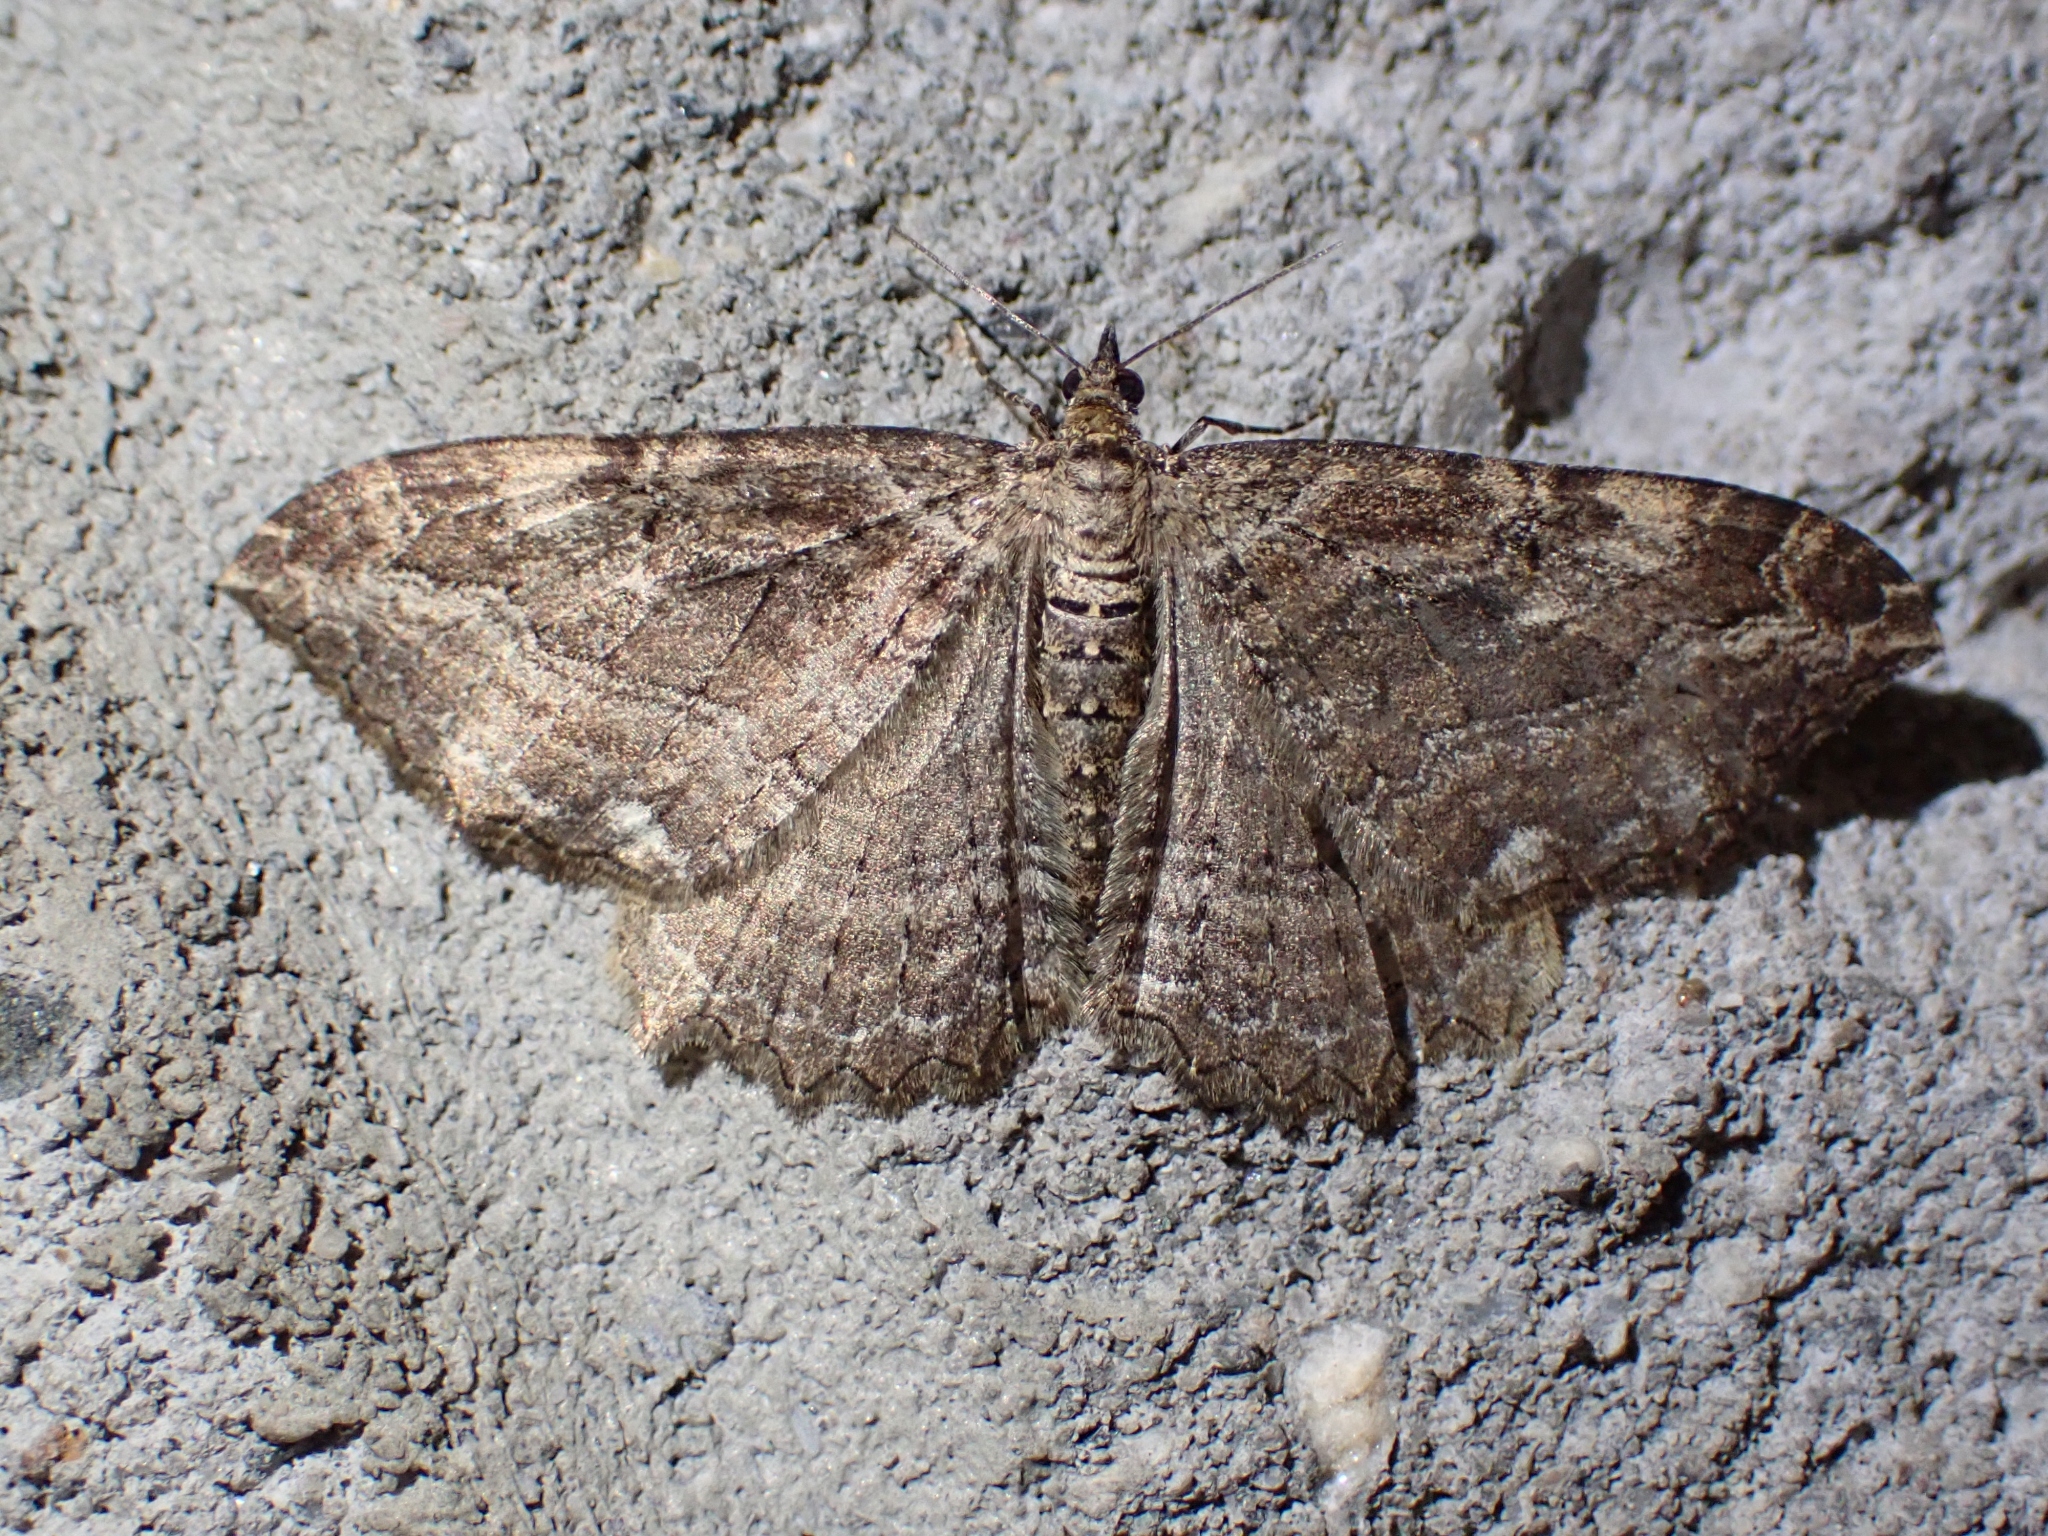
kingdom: Animalia
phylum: Arthropoda
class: Insecta
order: Lepidoptera
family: Geometridae
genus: Rheumaptera
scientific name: Rheumaptera
